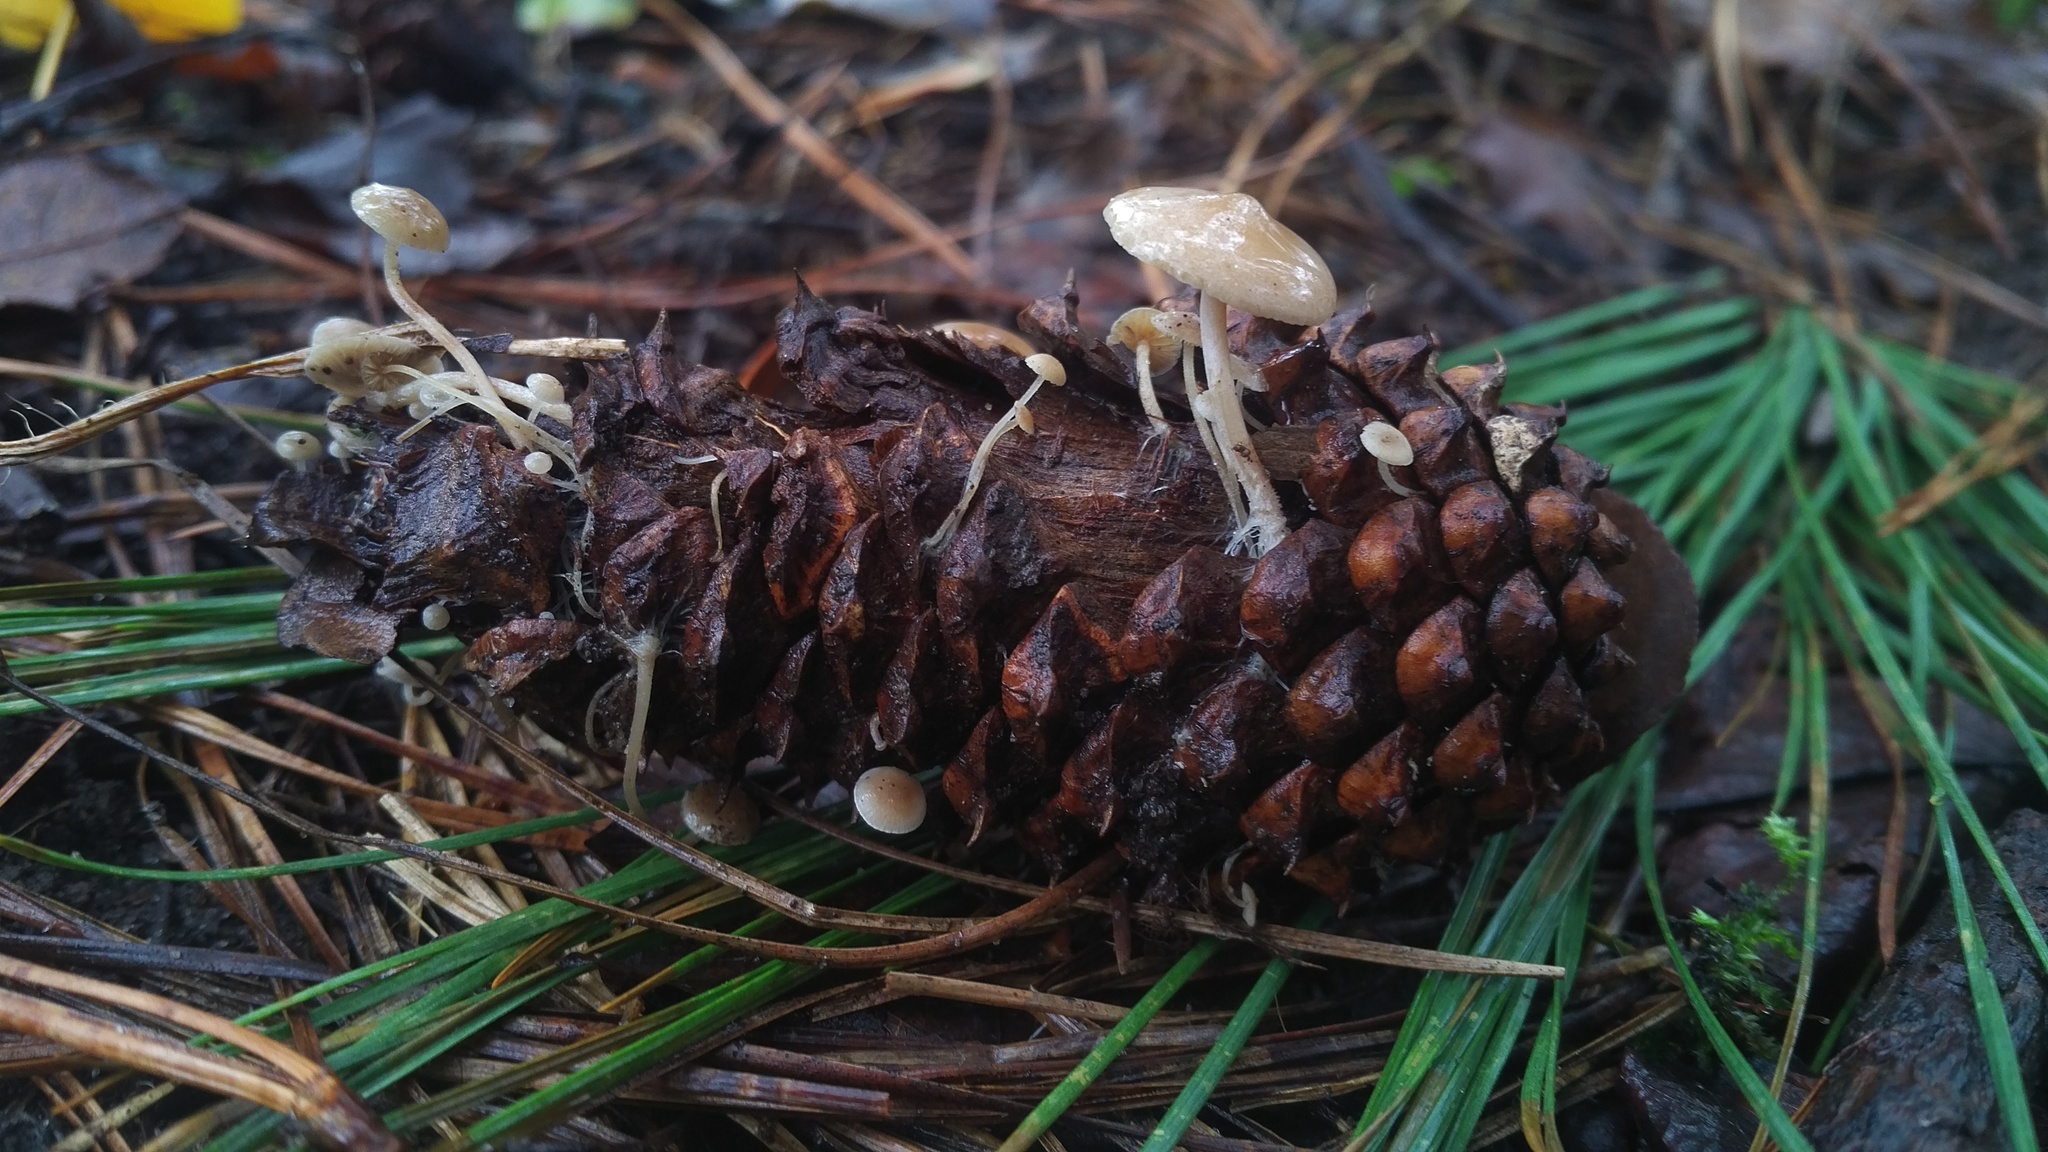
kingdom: Fungi
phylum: Basidiomycota
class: Agaricomycetes
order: Agaricales
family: Marasmiaceae
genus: Baeospora
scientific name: Baeospora myosura
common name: Conifercone cap
